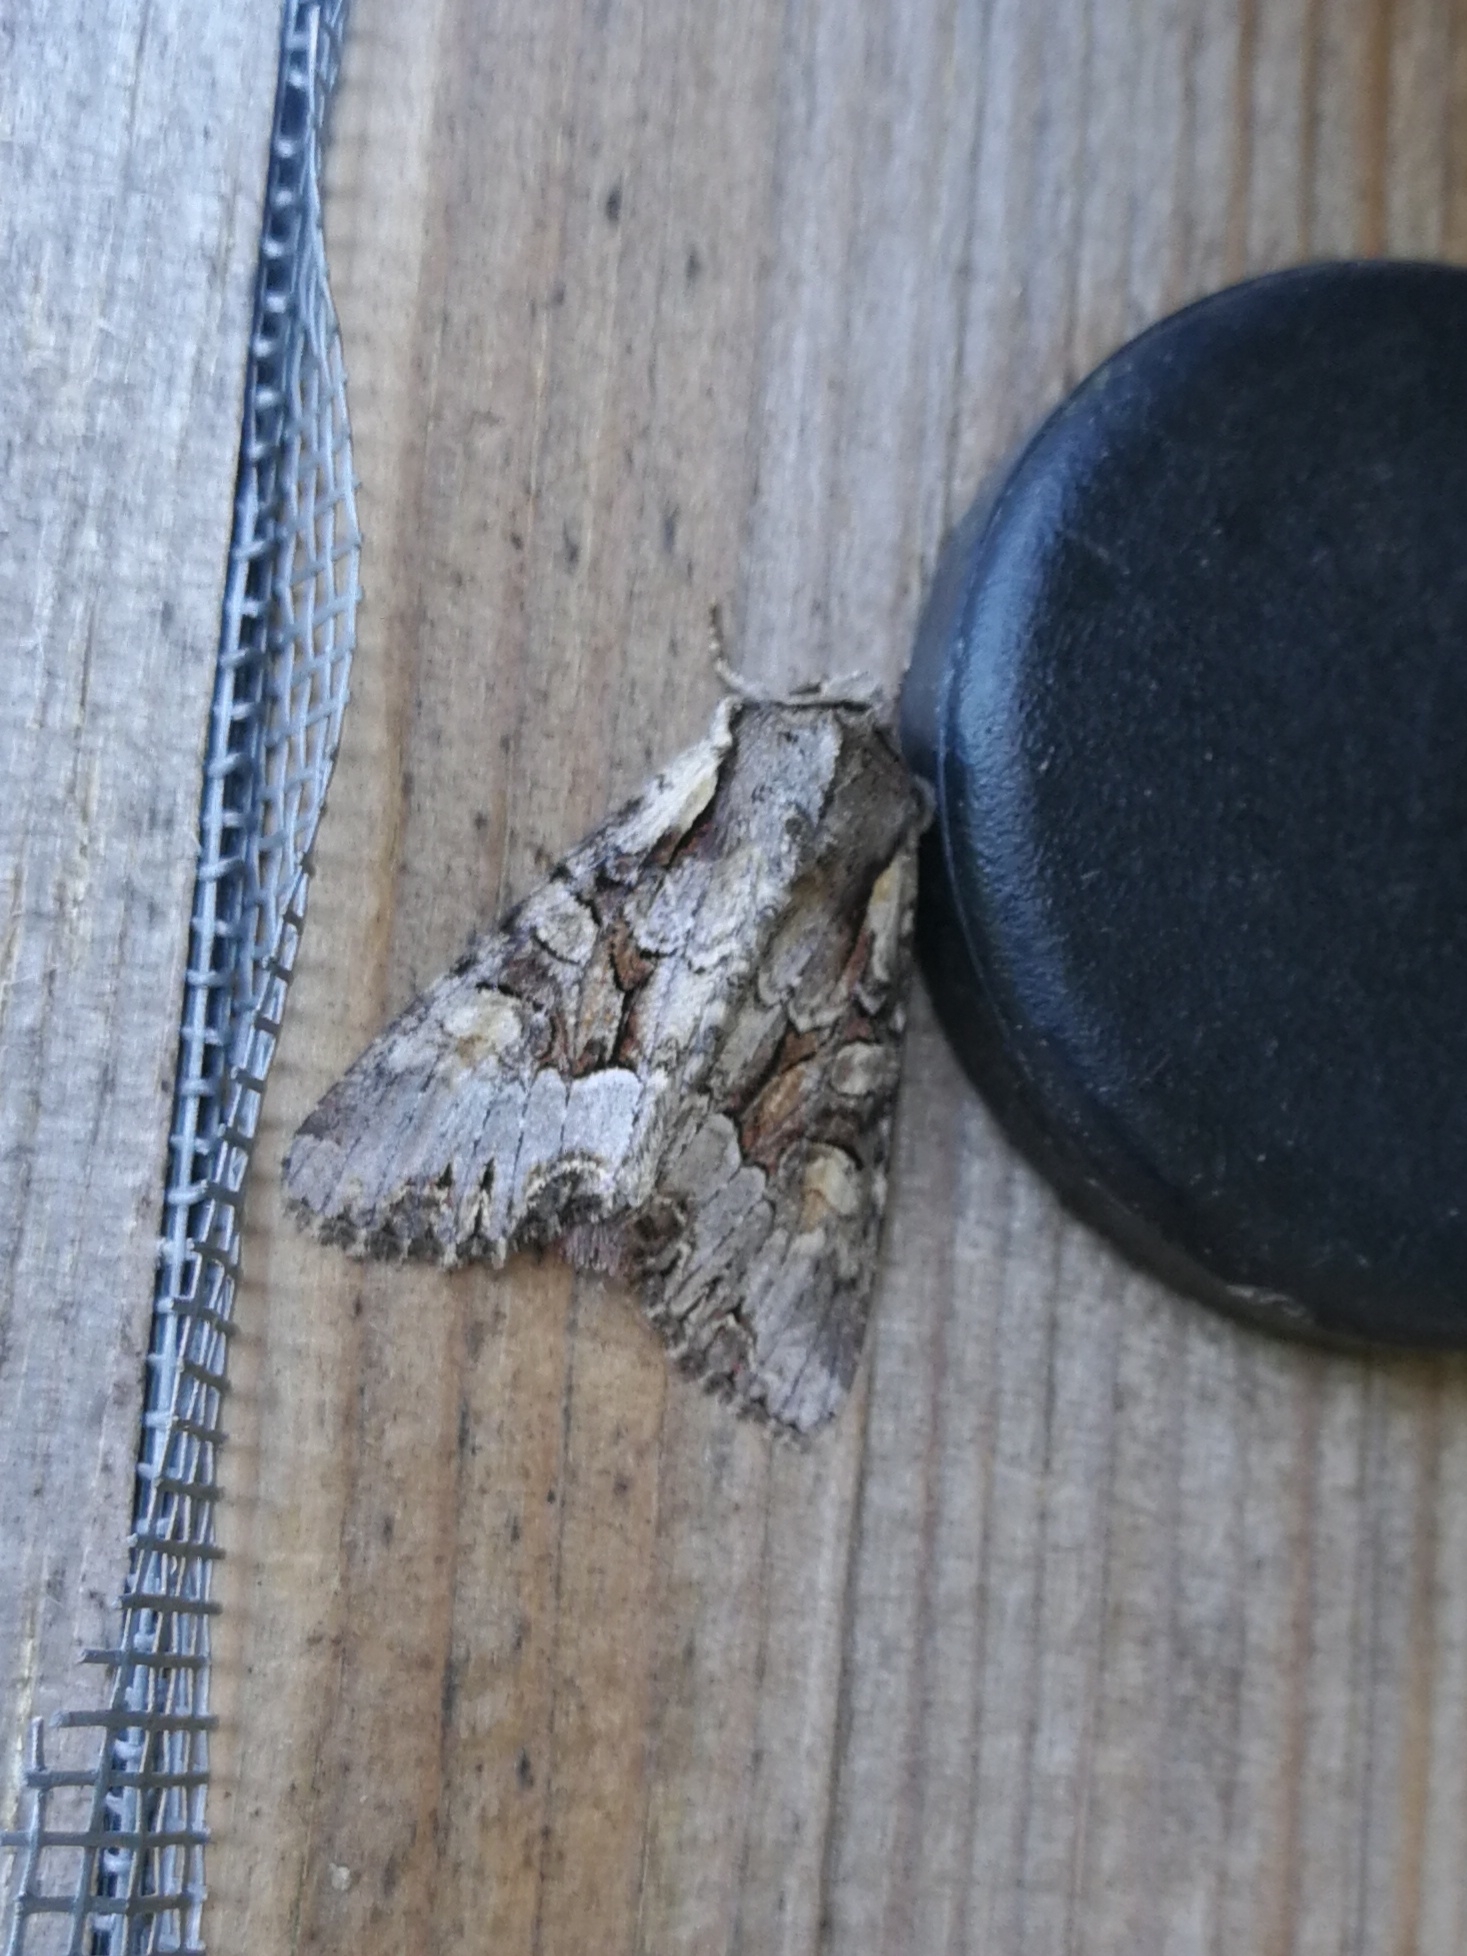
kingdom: Animalia
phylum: Arthropoda
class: Insecta
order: Lepidoptera
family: Noctuidae
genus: Lacanobia
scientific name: Lacanobia w-latinum
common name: Light brocade
